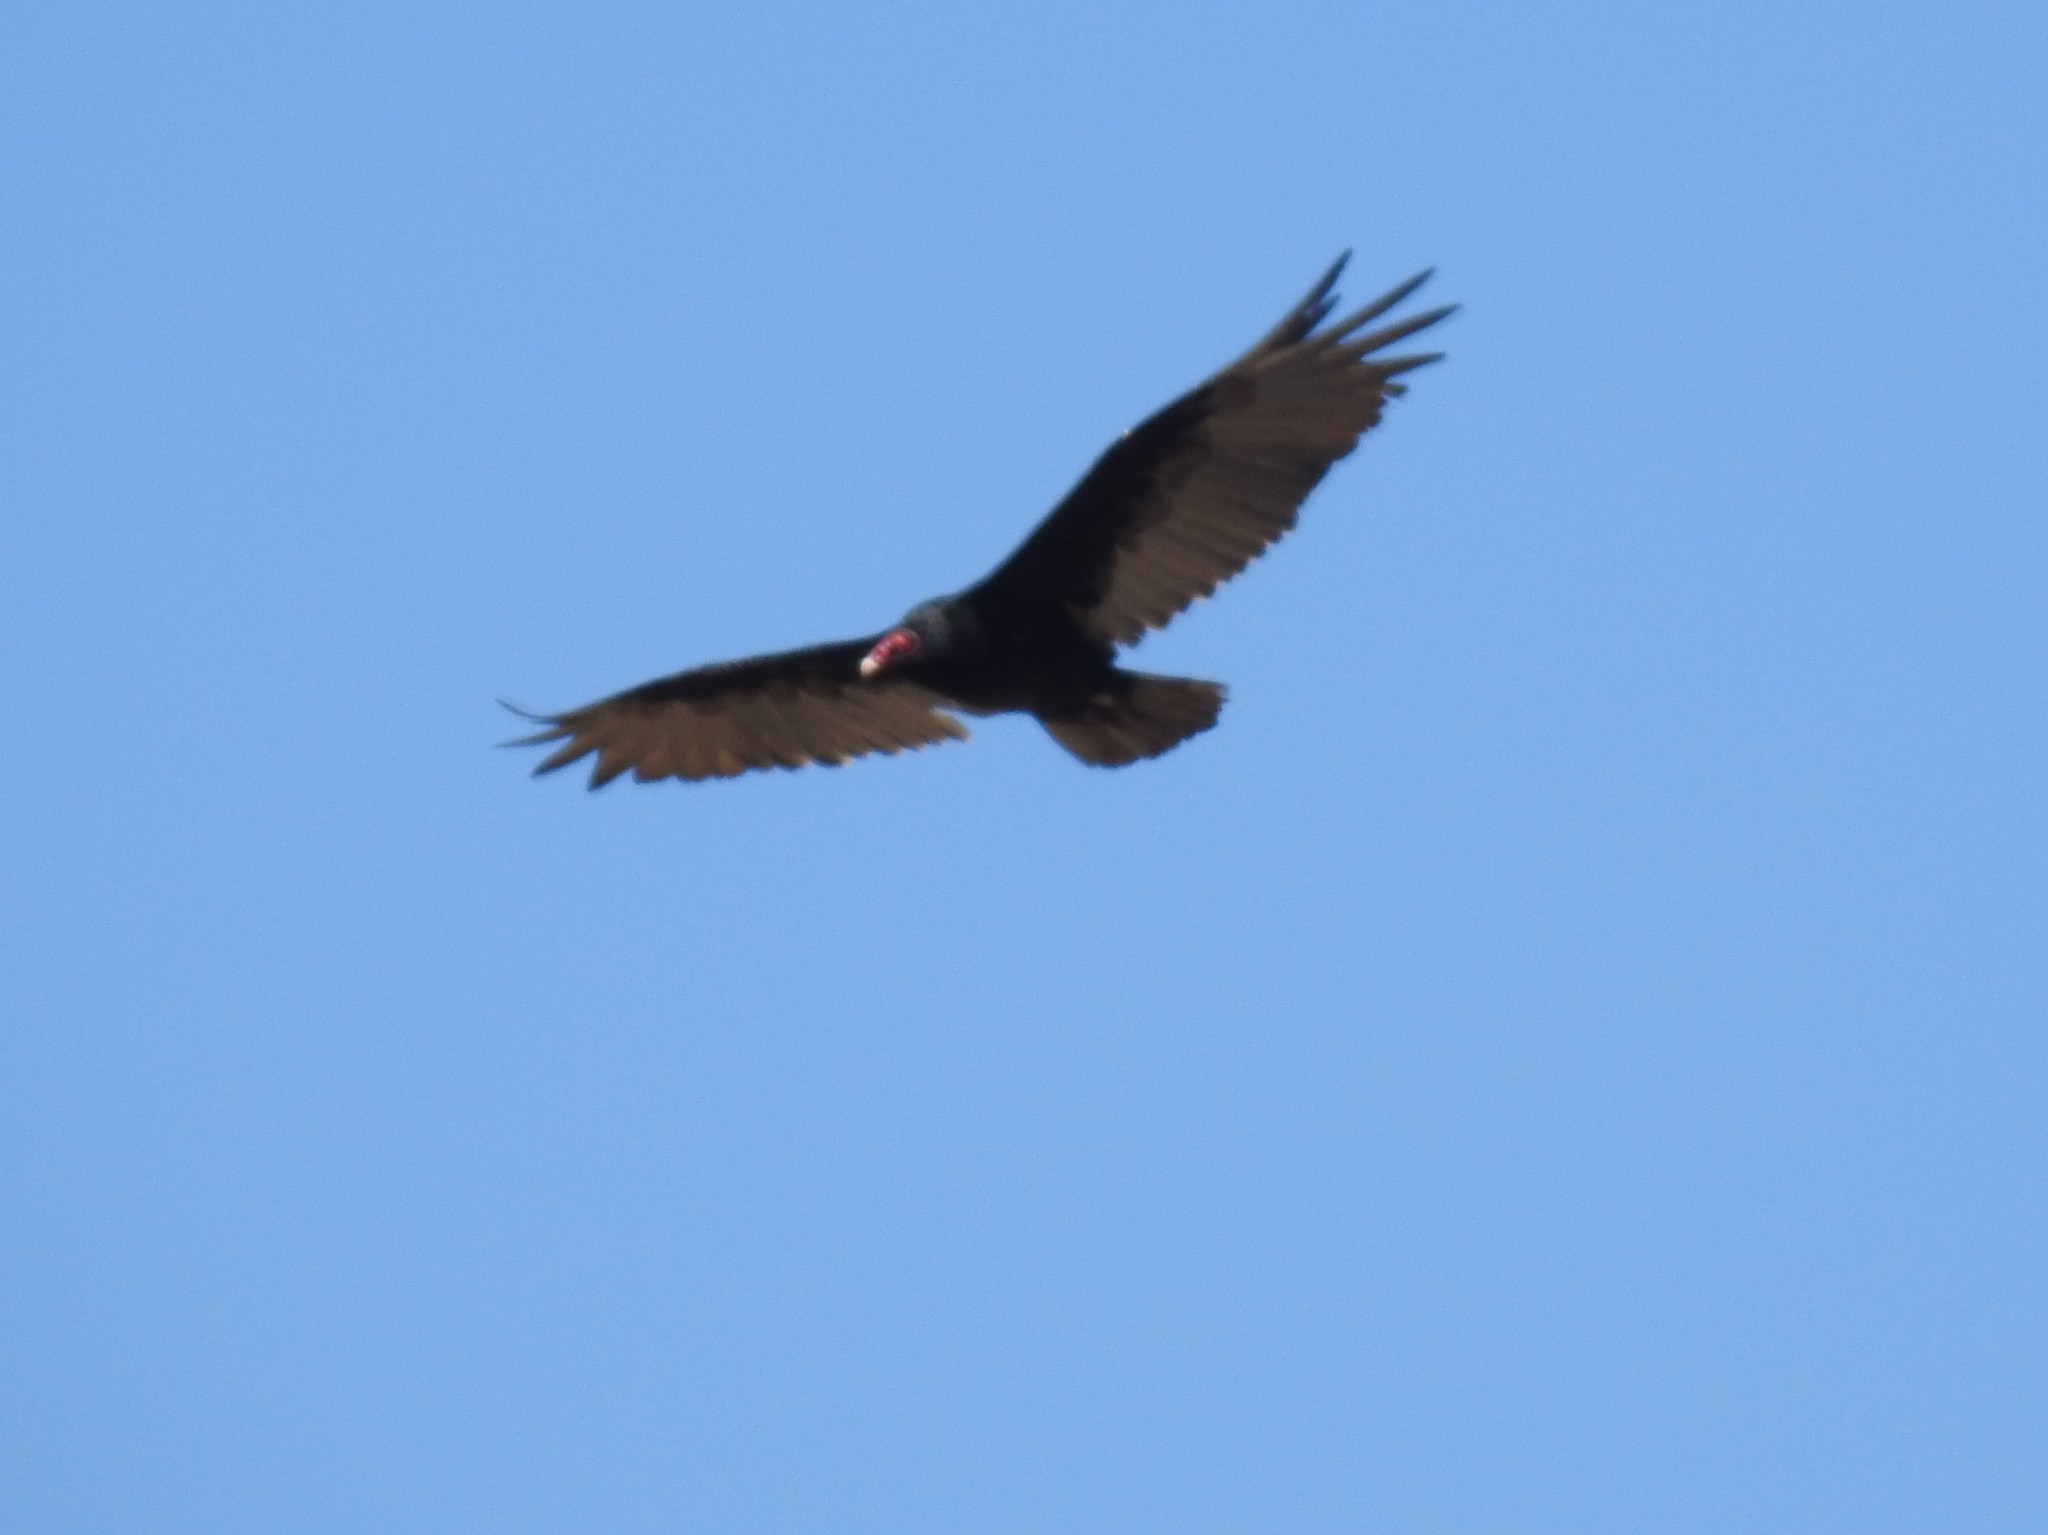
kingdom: Animalia
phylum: Chordata
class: Aves
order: Accipitriformes
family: Cathartidae
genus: Cathartes
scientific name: Cathartes aura
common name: Turkey vulture
